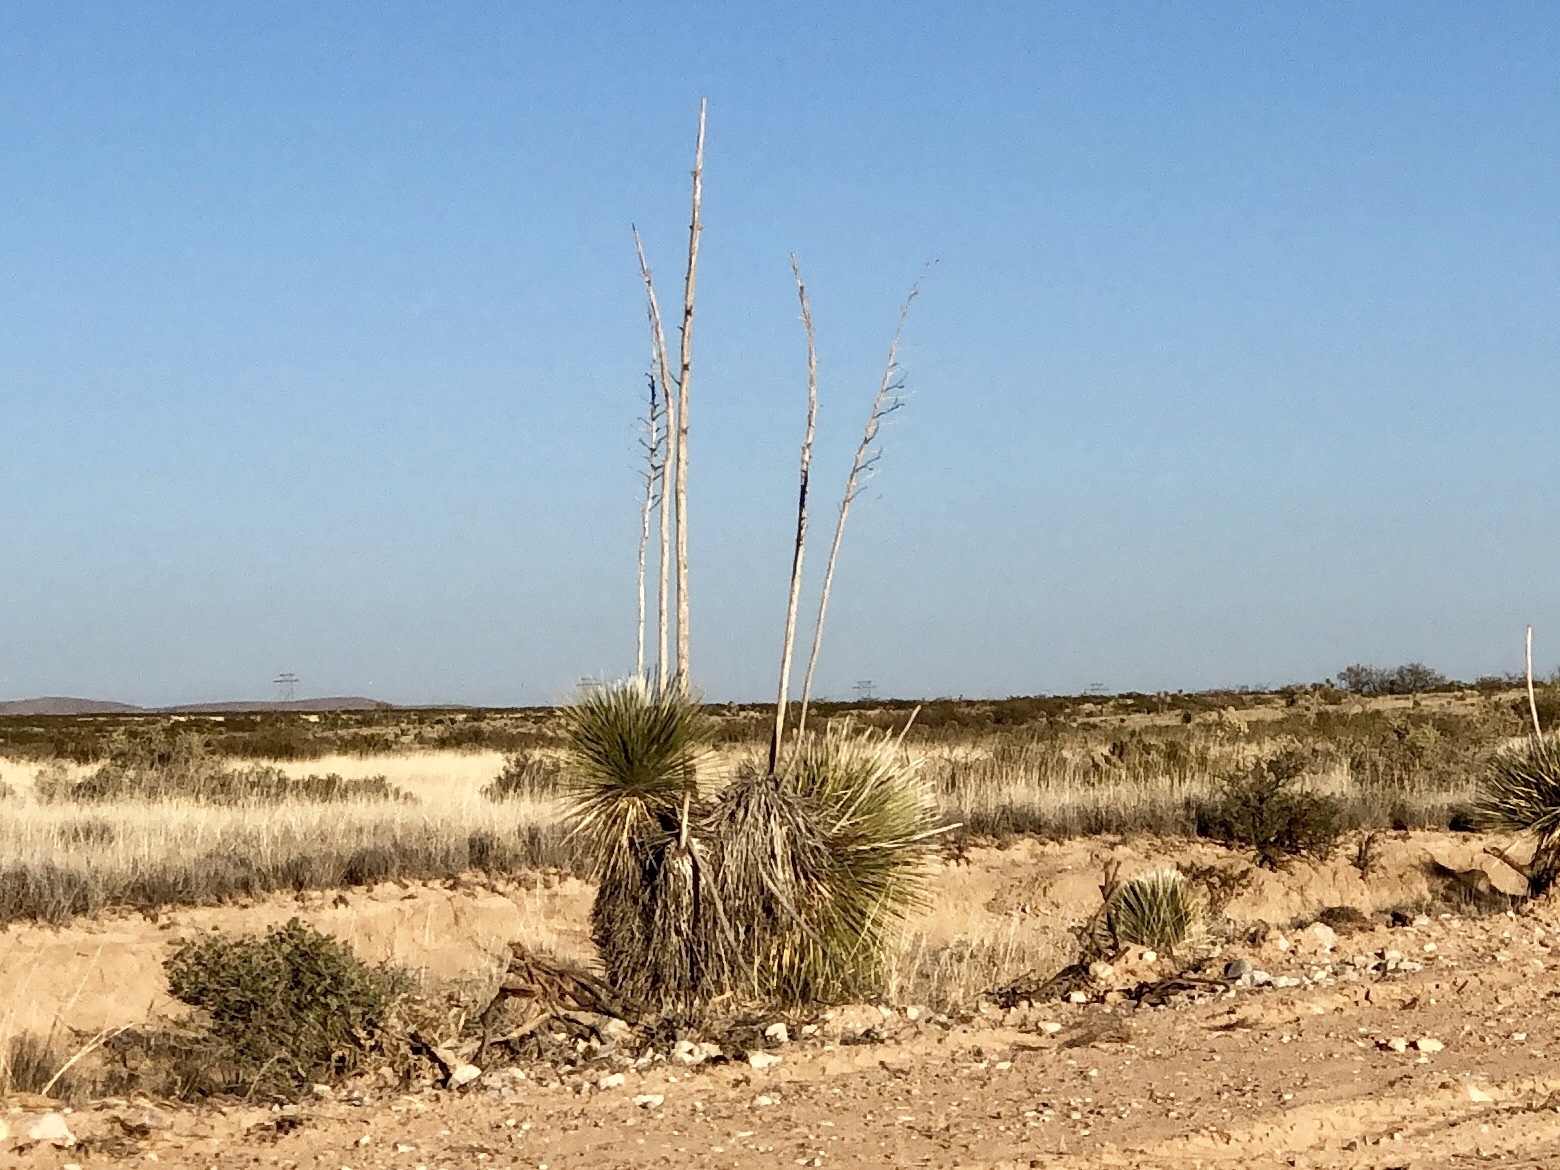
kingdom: Plantae
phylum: Tracheophyta
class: Liliopsida
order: Asparagales
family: Asparagaceae
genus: Yucca
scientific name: Yucca elata
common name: Palmella
